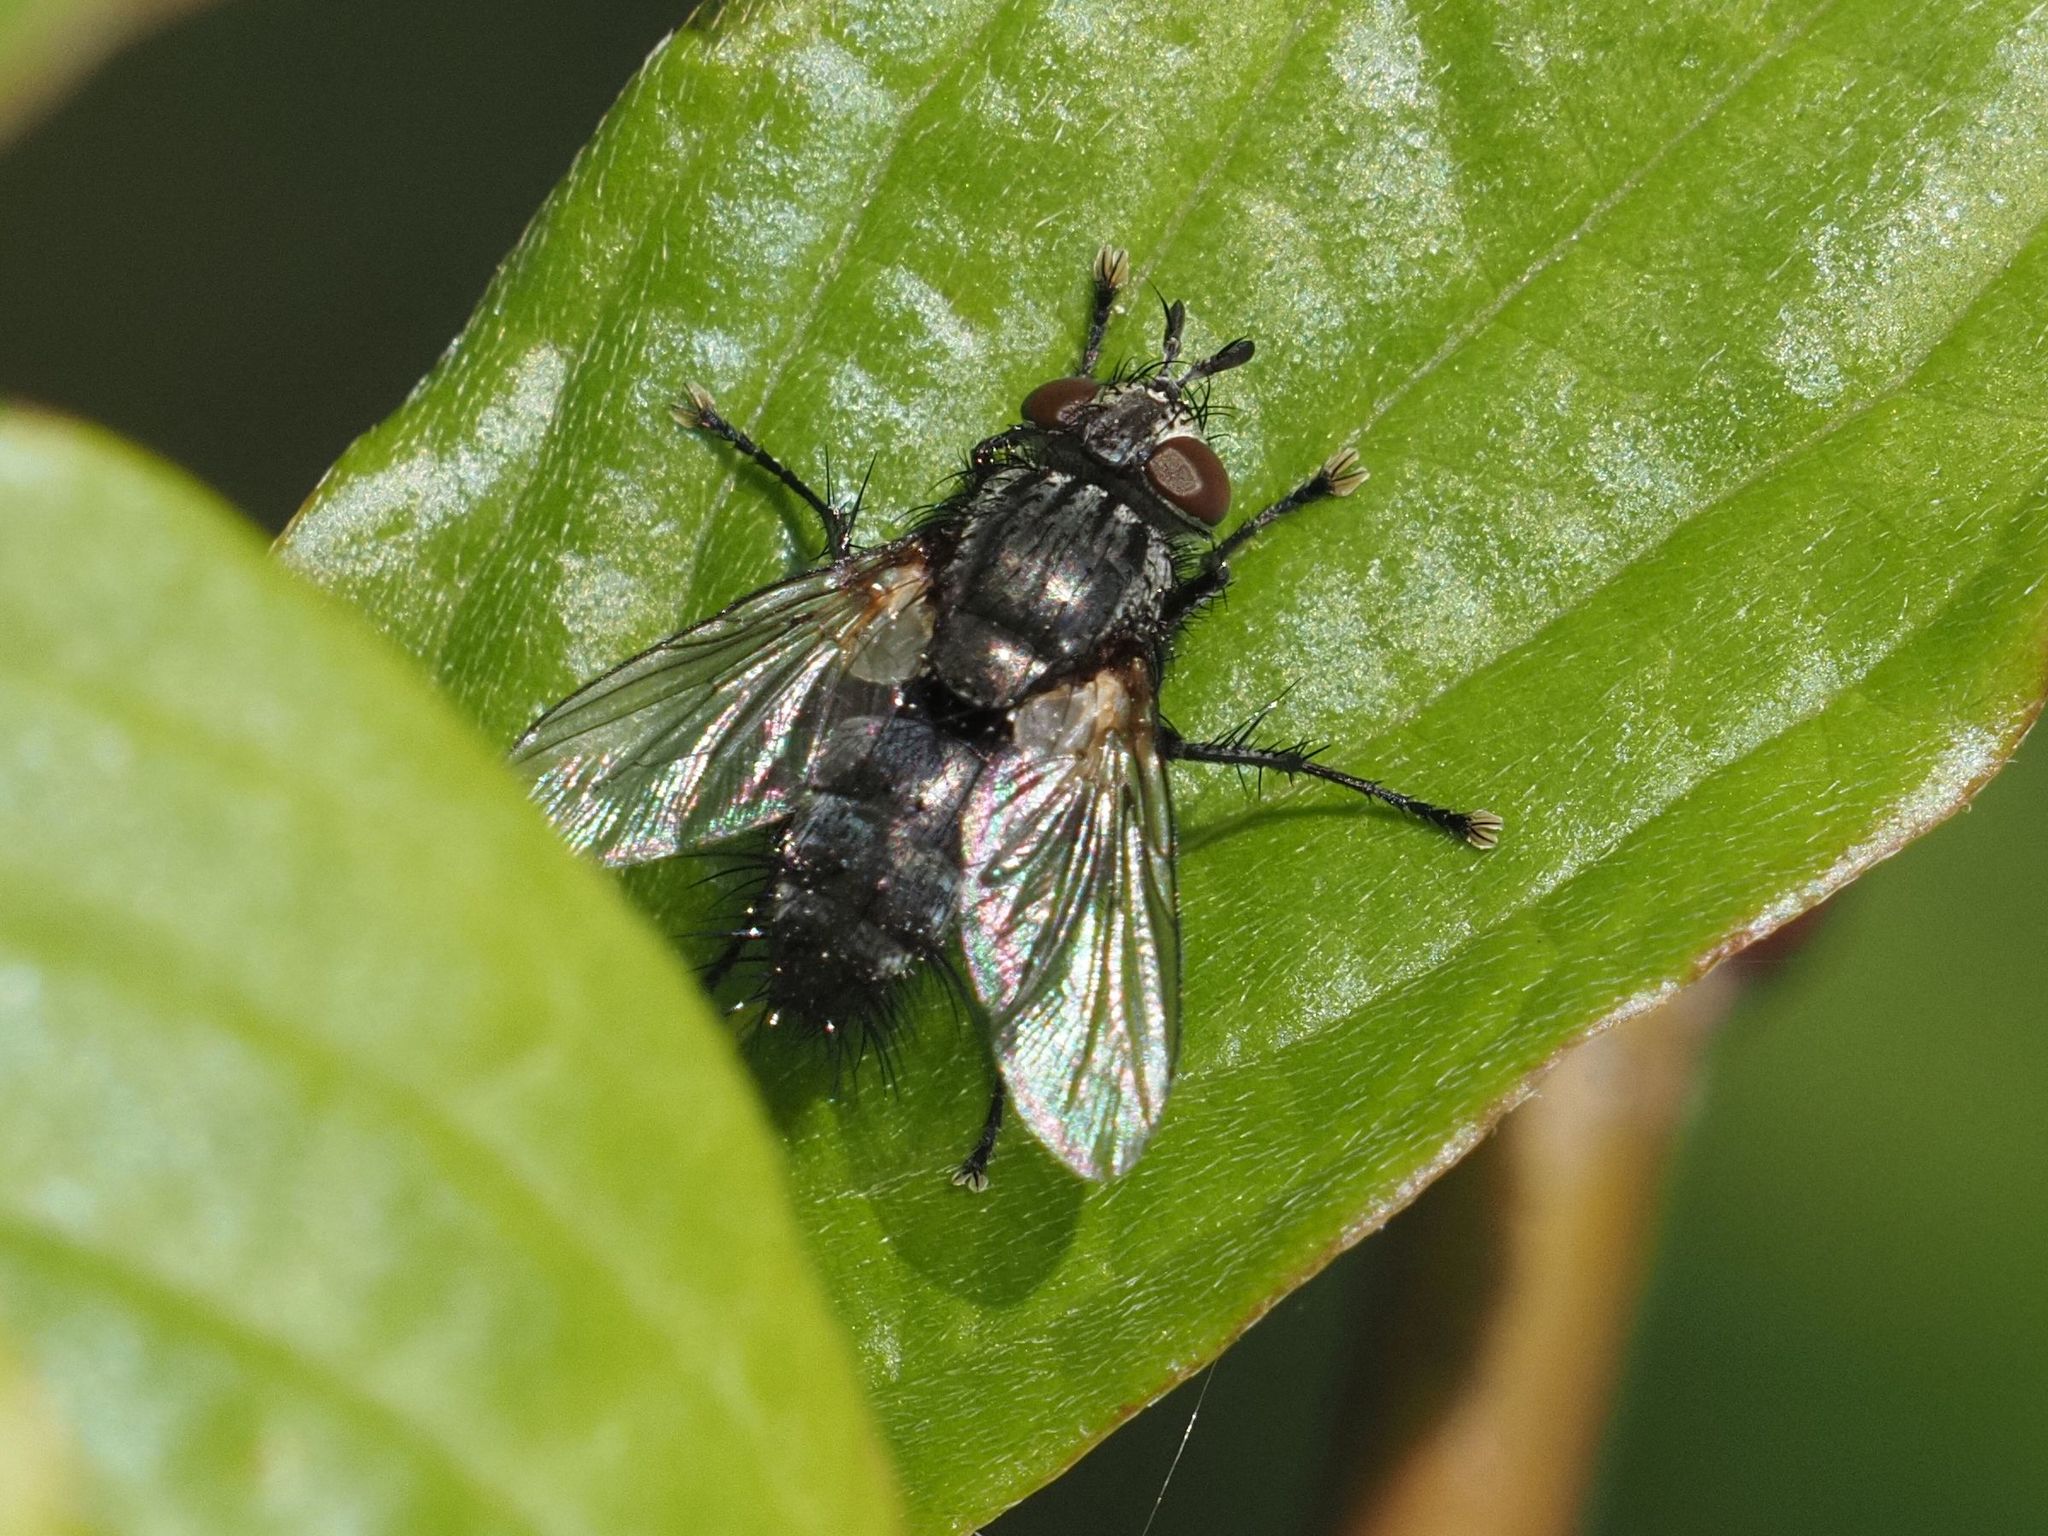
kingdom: Animalia
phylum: Arthropoda
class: Insecta
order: Diptera
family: Tachinidae
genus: Voria
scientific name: Voria ruralis
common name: Parasitic fly
